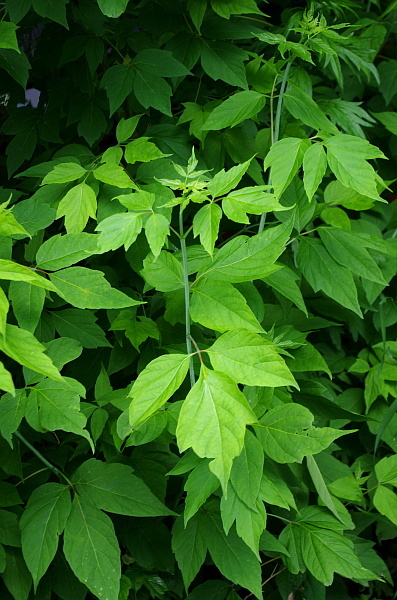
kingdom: Plantae
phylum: Tracheophyta
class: Magnoliopsida
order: Sapindales
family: Sapindaceae
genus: Acer
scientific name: Acer negundo
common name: Ashleaf maple
